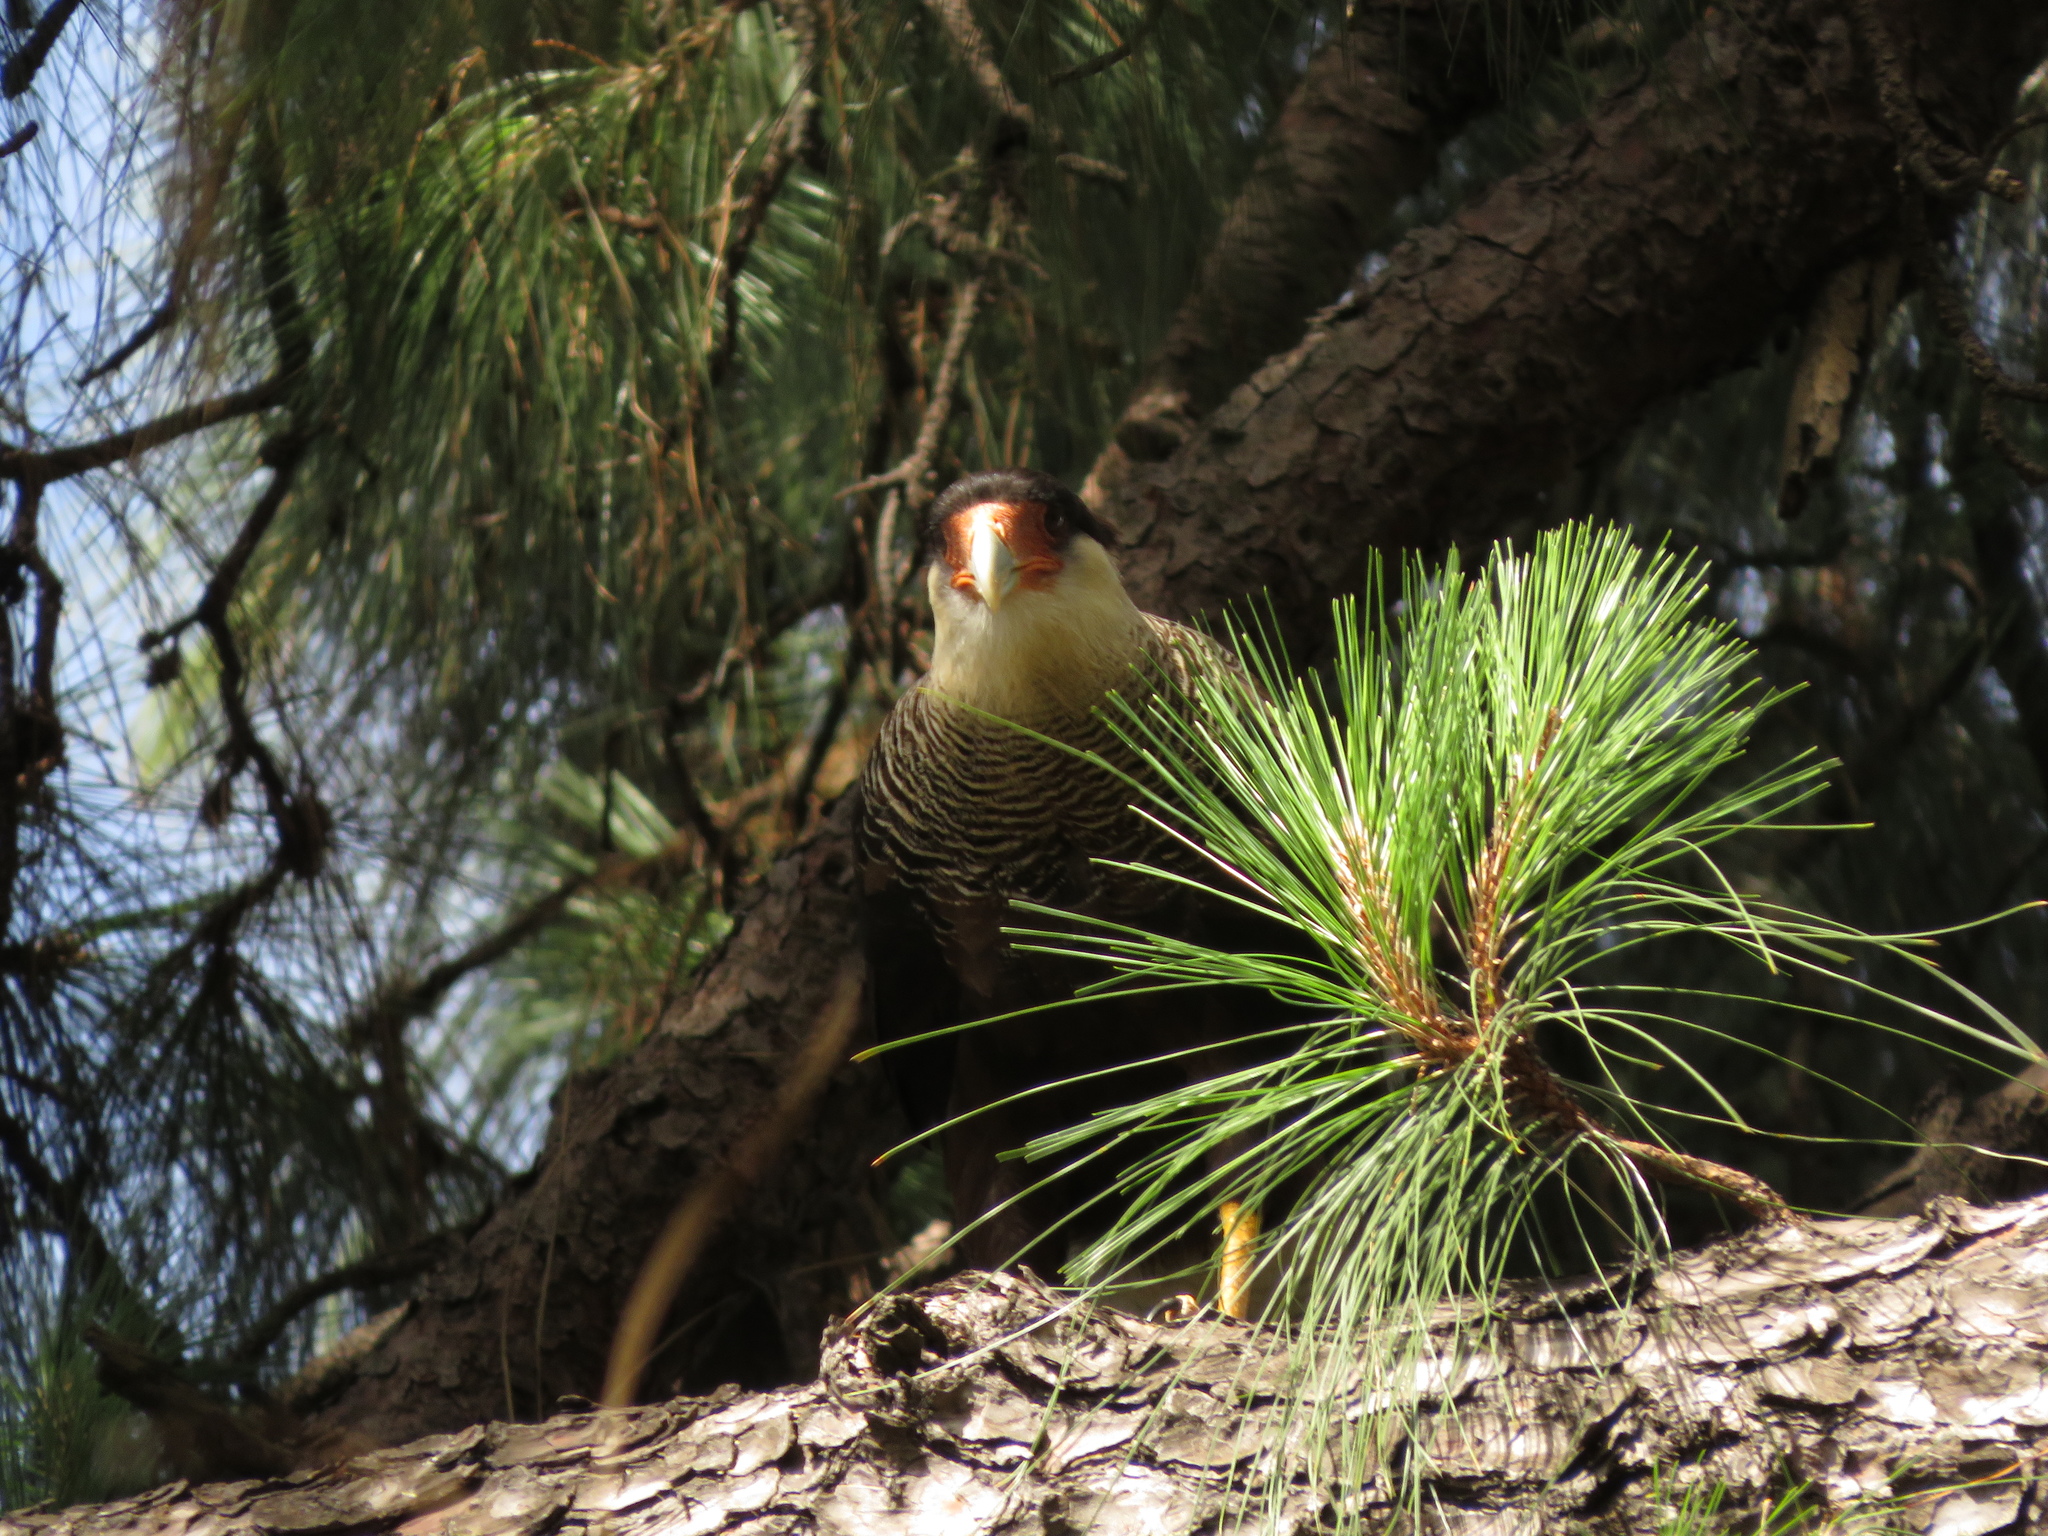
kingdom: Animalia
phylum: Chordata
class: Aves
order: Falconiformes
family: Falconidae
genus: Caracara
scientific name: Caracara plancus
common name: Southern caracara
